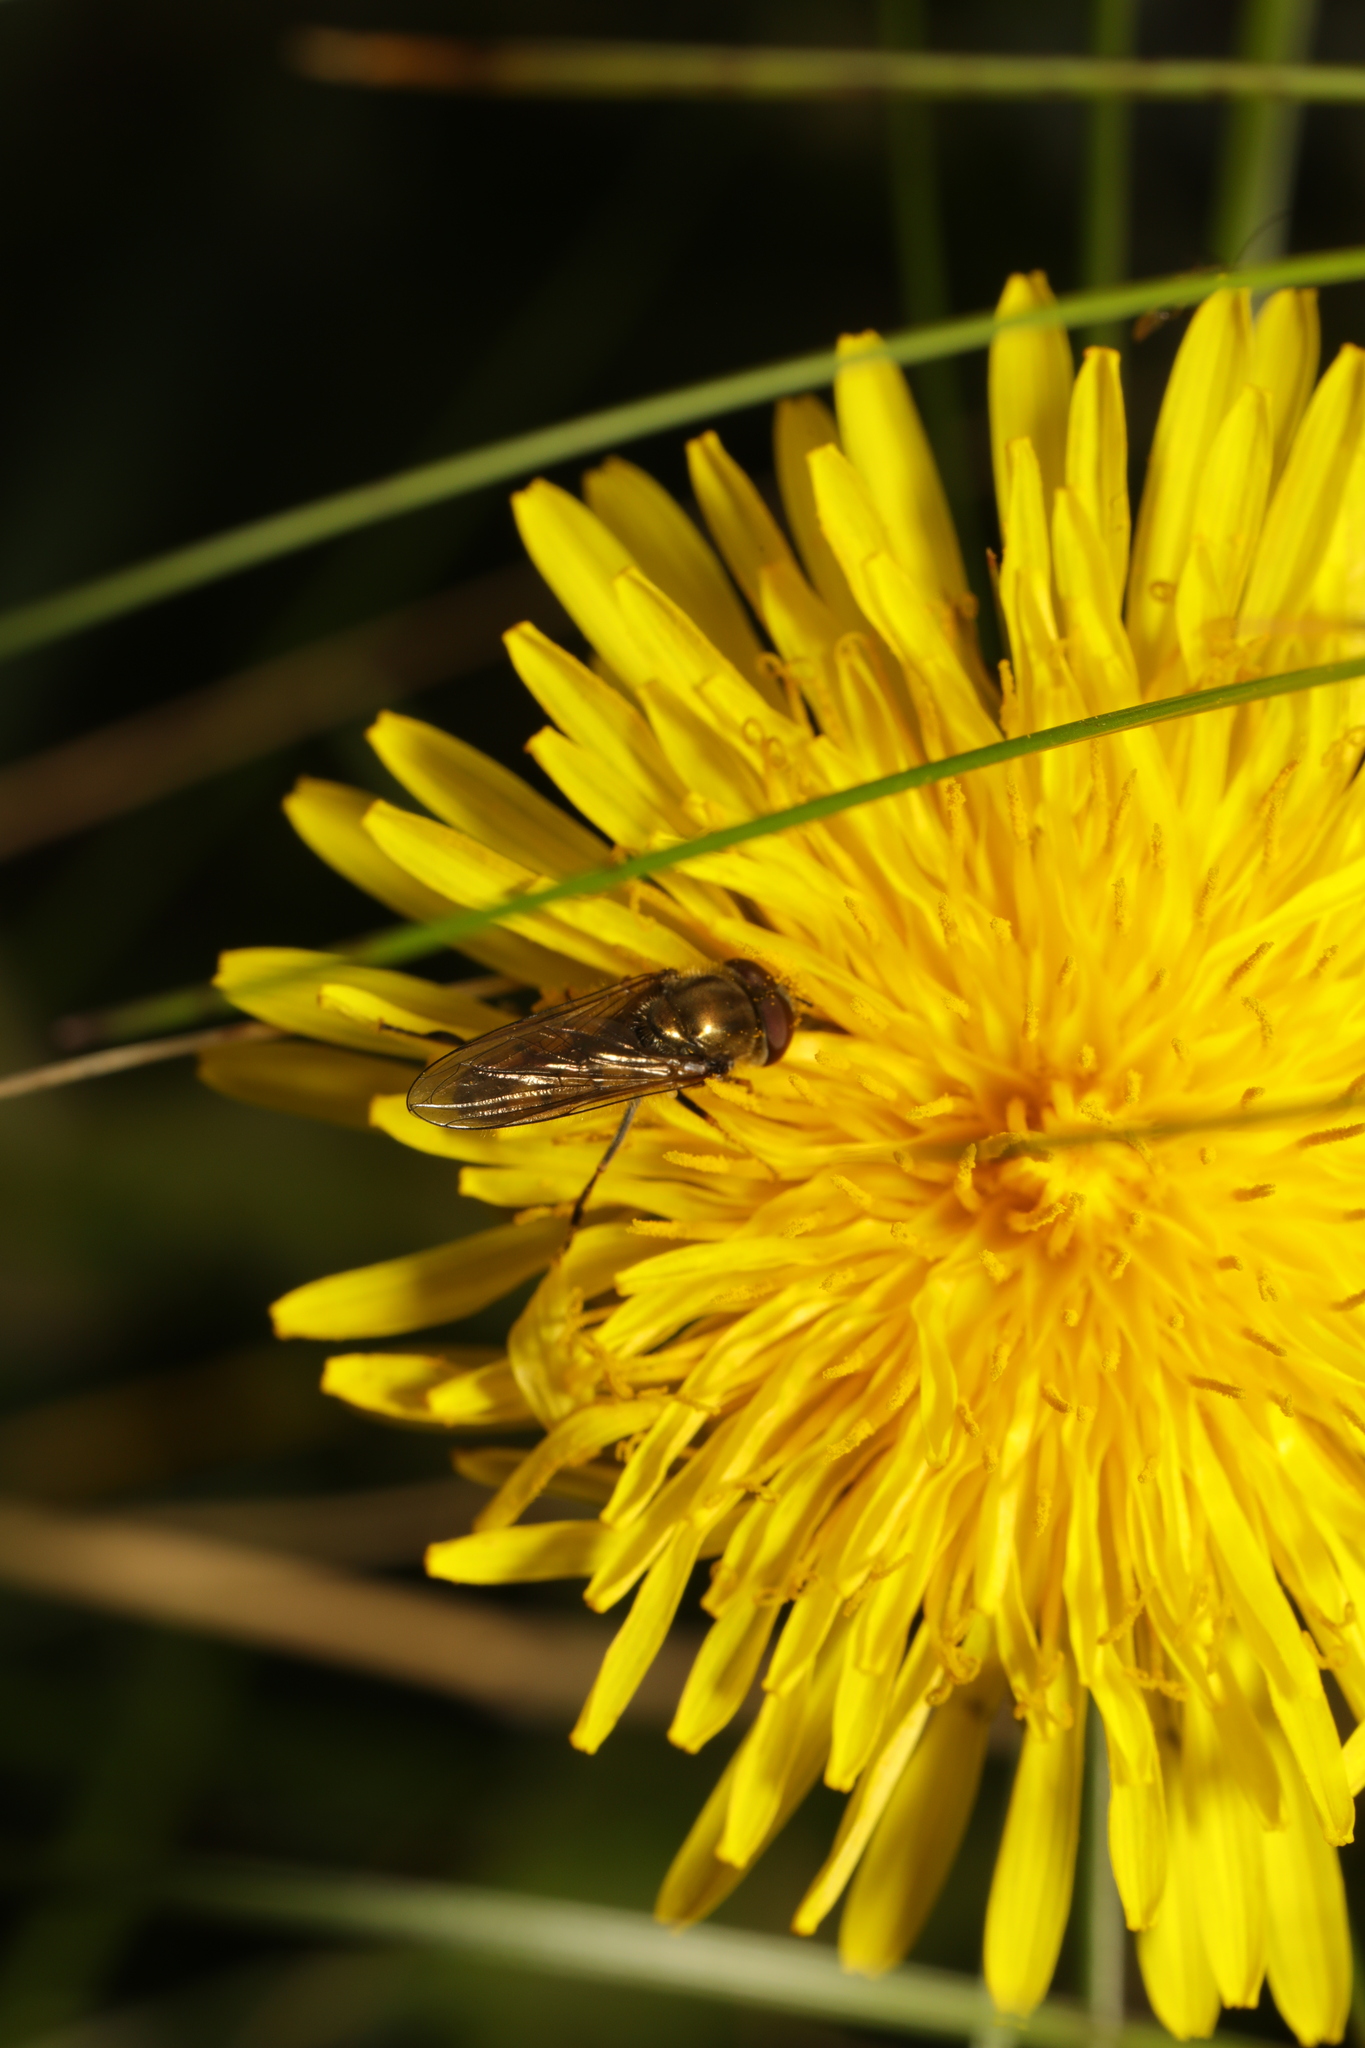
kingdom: Animalia
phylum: Arthropoda
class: Insecta
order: Diptera
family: Syrphidae
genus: Platycheirus
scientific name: Platycheirus manicatus
